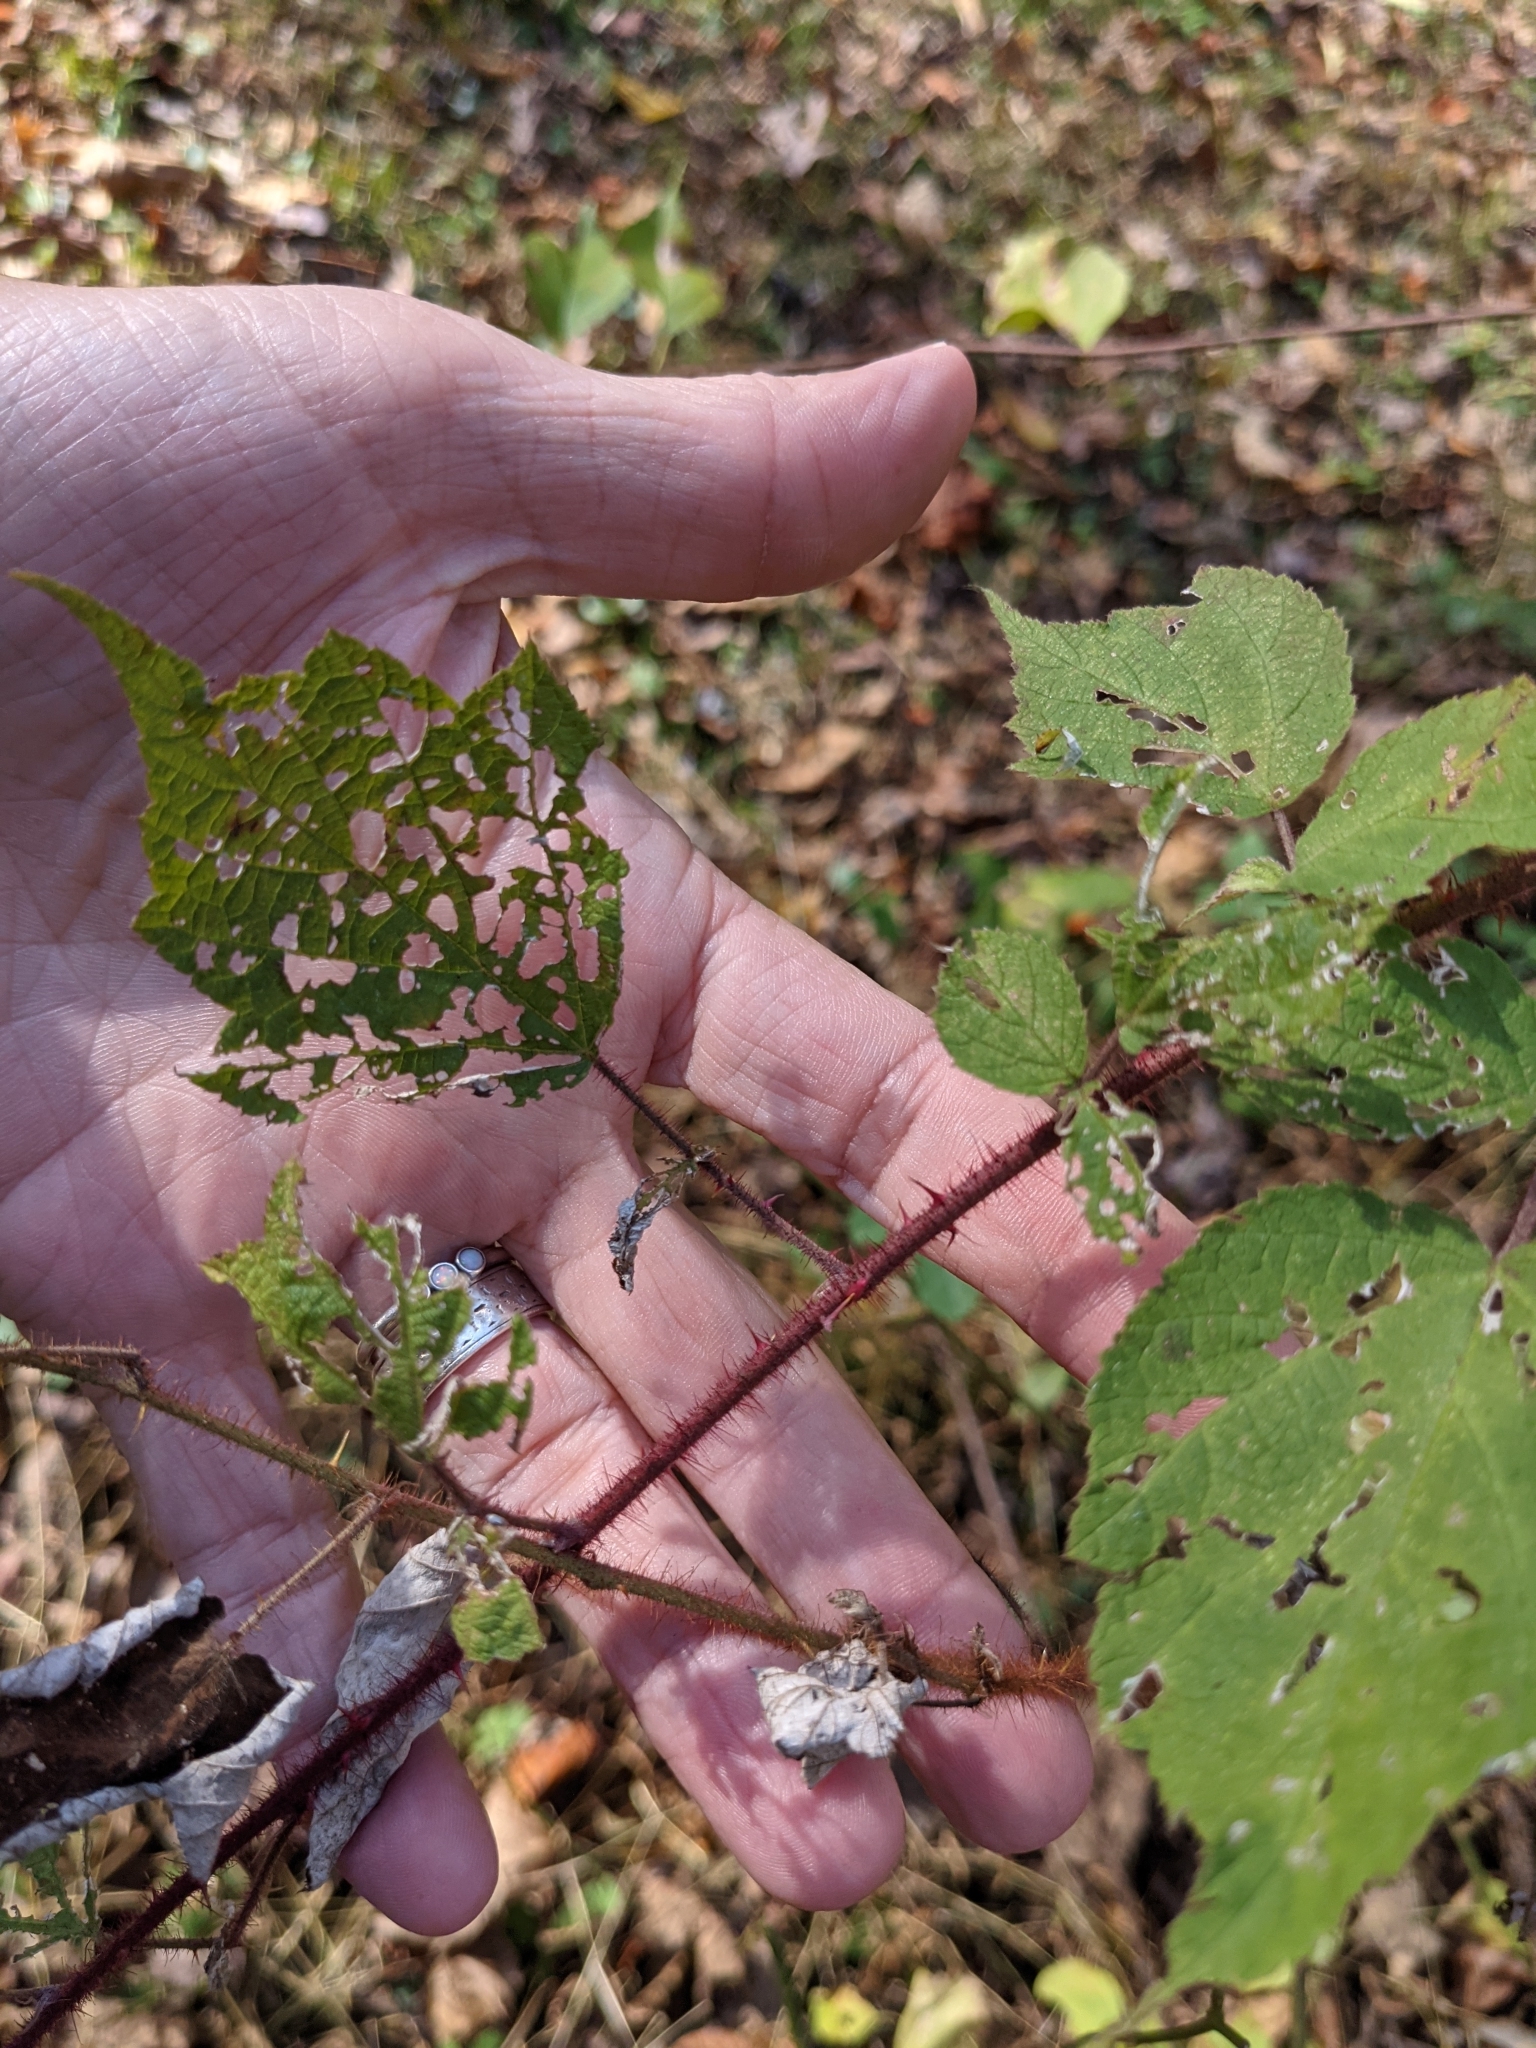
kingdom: Plantae
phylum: Tracheophyta
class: Magnoliopsida
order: Rosales
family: Rosaceae
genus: Rubus
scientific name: Rubus phoenicolasius
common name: Japanese wineberry
